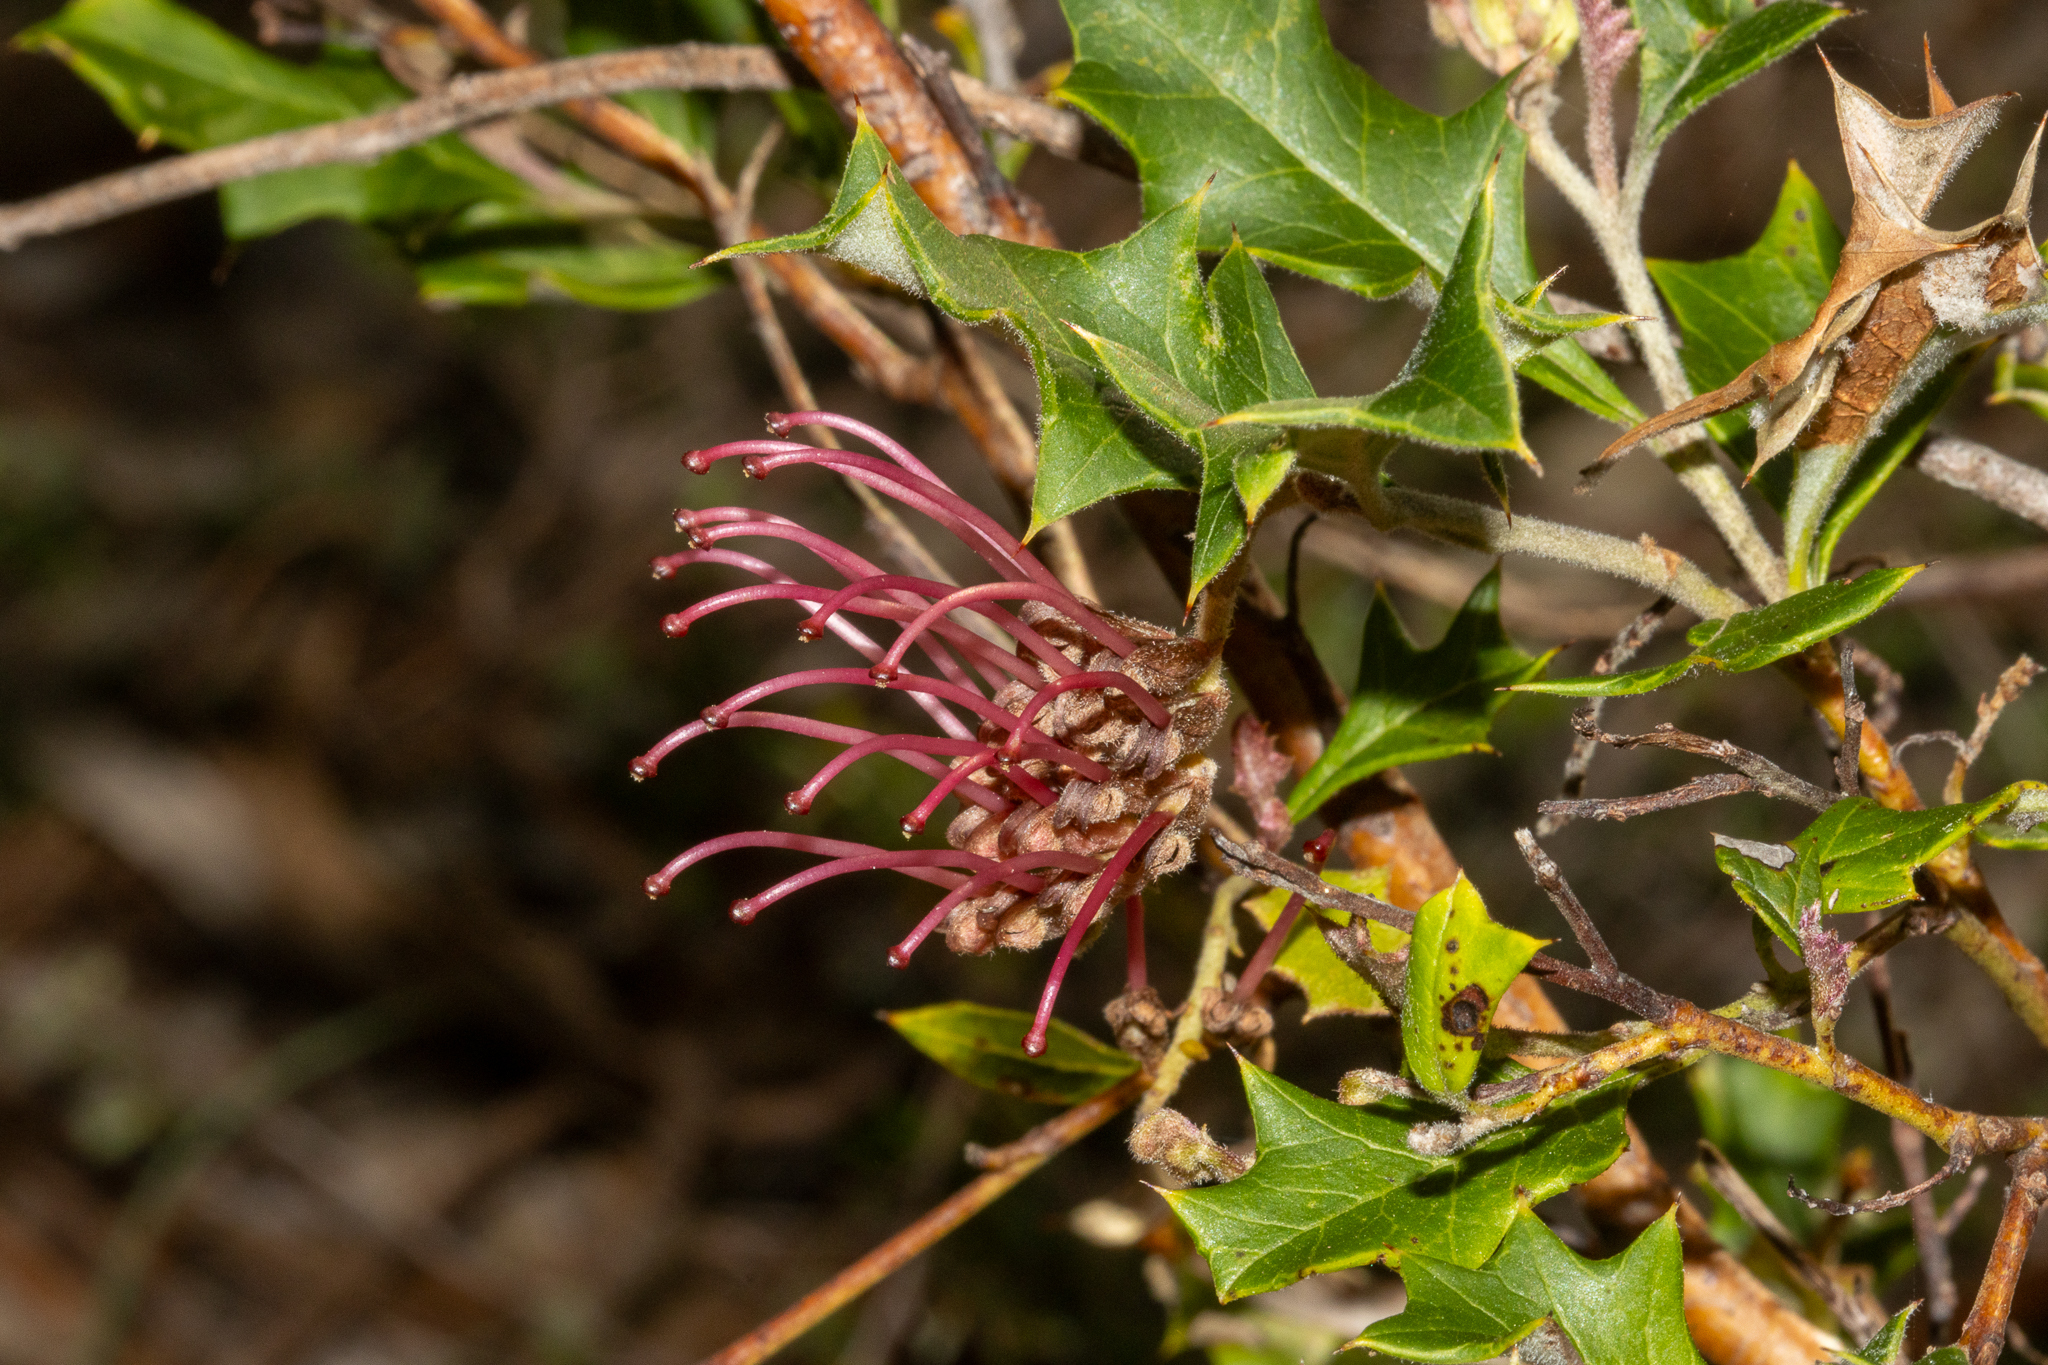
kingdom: Plantae
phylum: Tracheophyta
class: Magnoliopsida
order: Proteales
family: Proteaceae
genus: Grevillea
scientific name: Grevillea aquifolium
